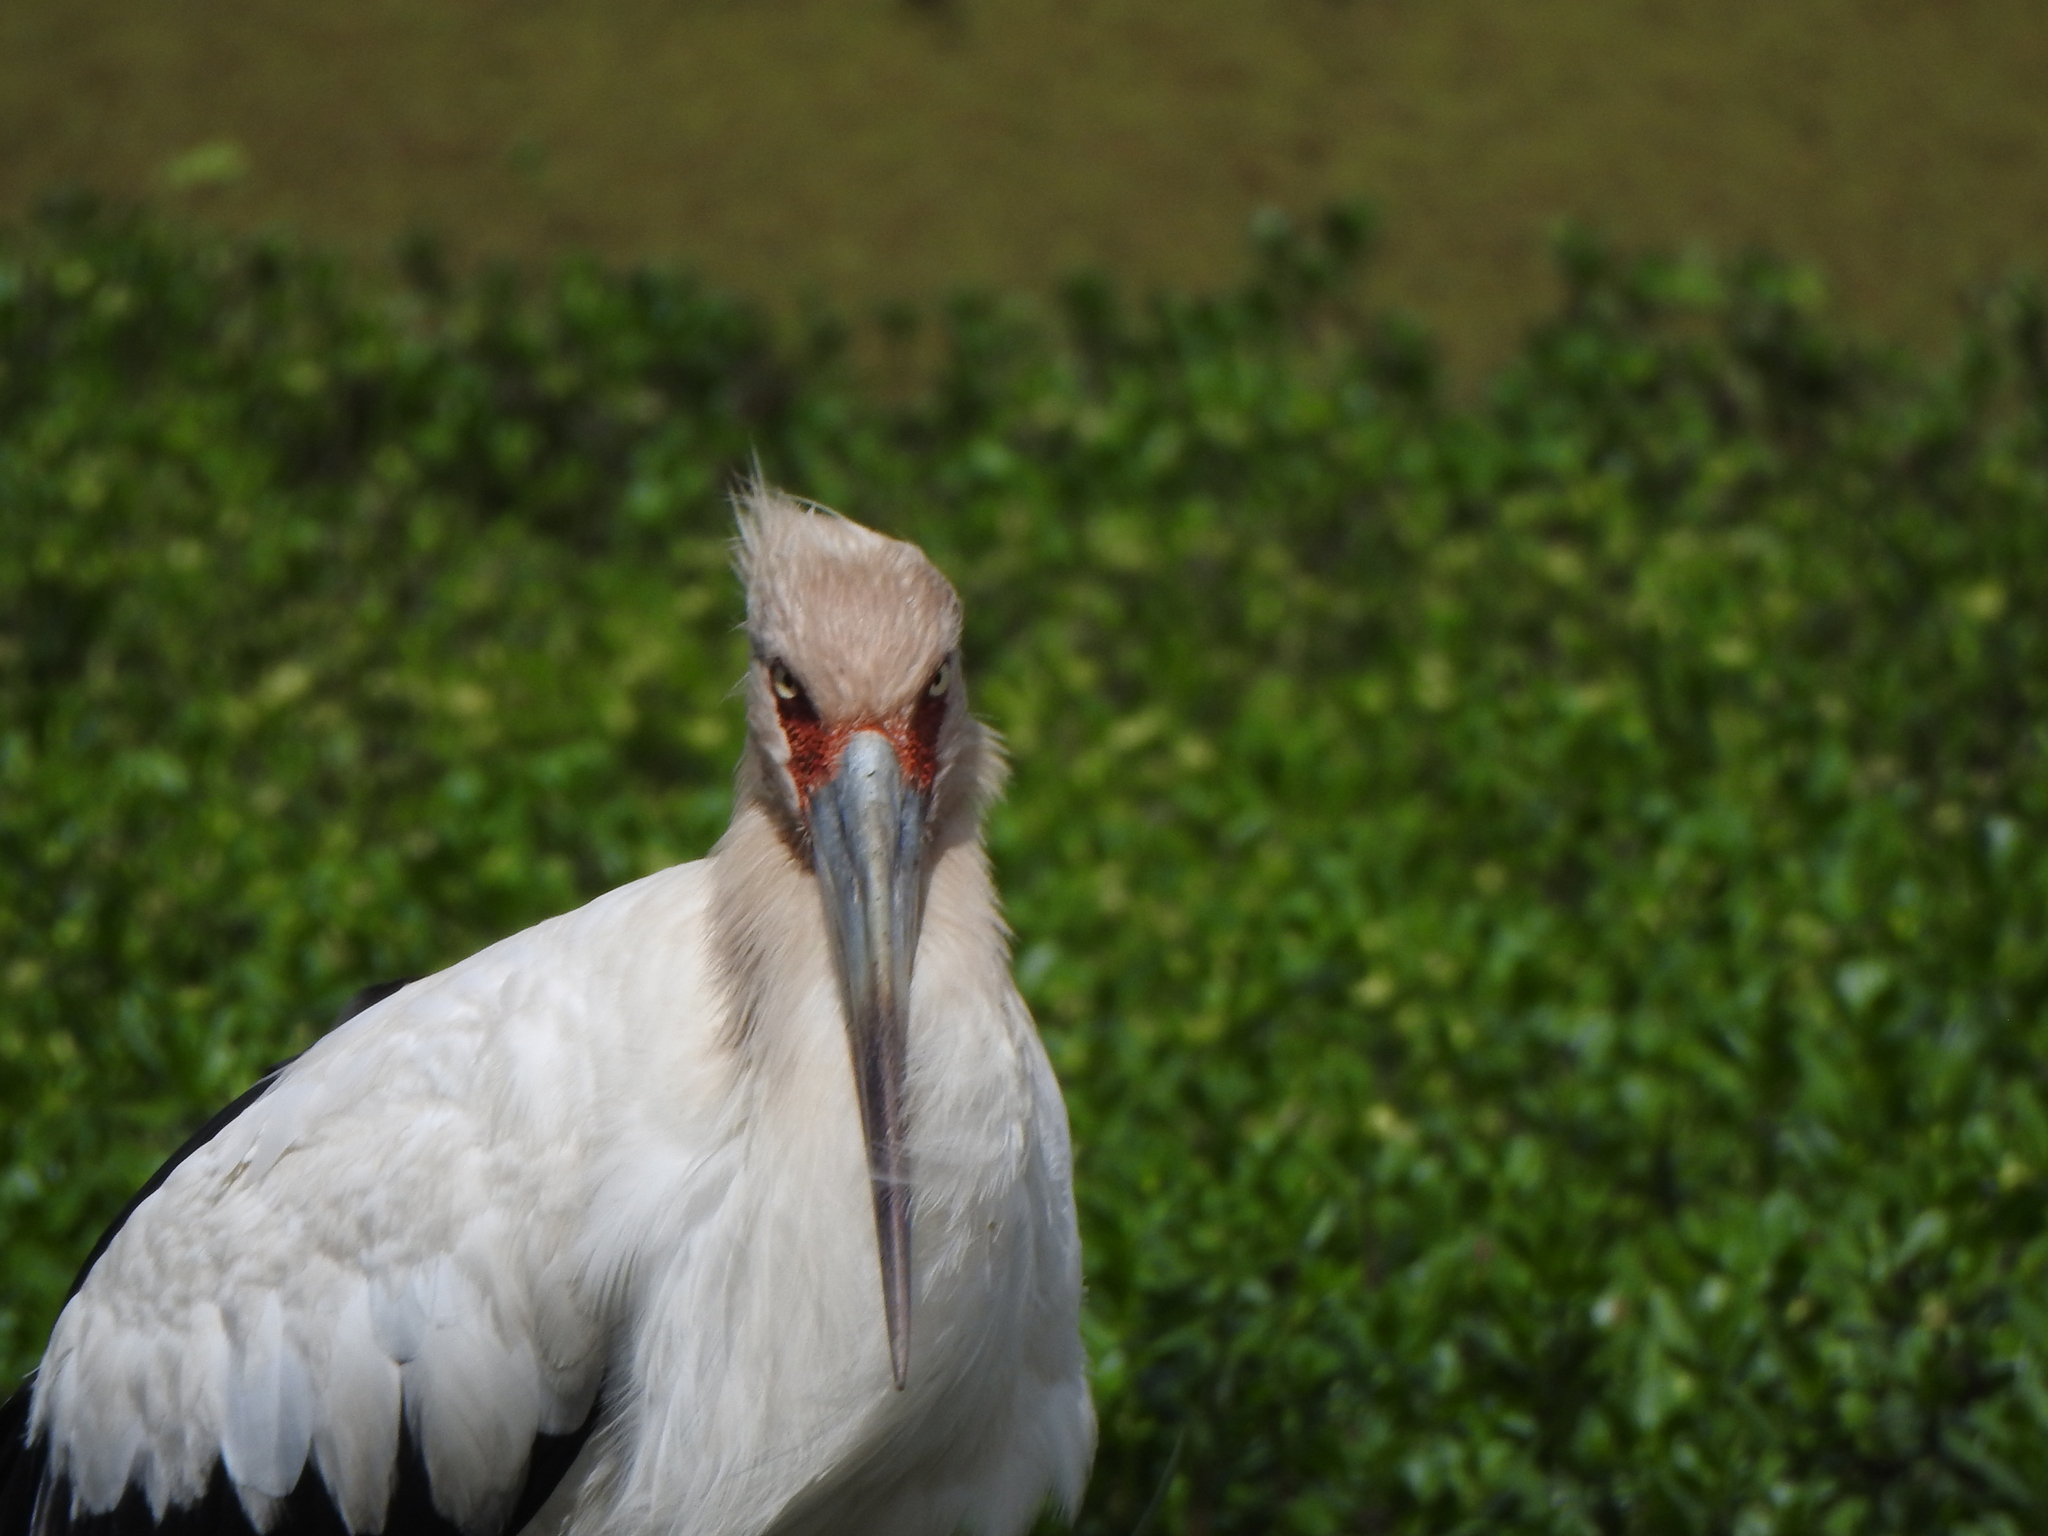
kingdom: Animalia
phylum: Chordata
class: Aves
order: Ciconiiformes
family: Ciconiidae
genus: Ciconia
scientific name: Ciconia maguari
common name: Maguari stork
